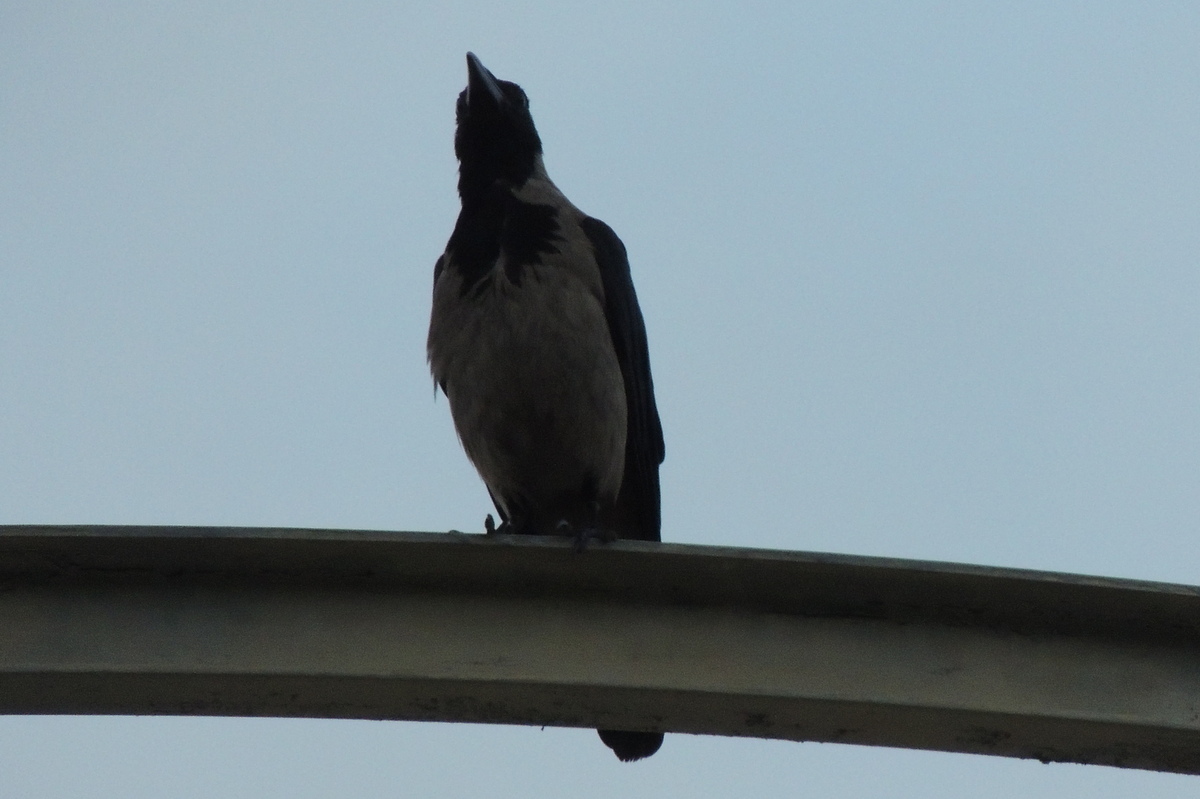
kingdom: Animalia
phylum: Chordata
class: Aves
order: Passeriformes
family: Corvidae
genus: Corvus
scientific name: Corvus cornix
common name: Hooded crow
